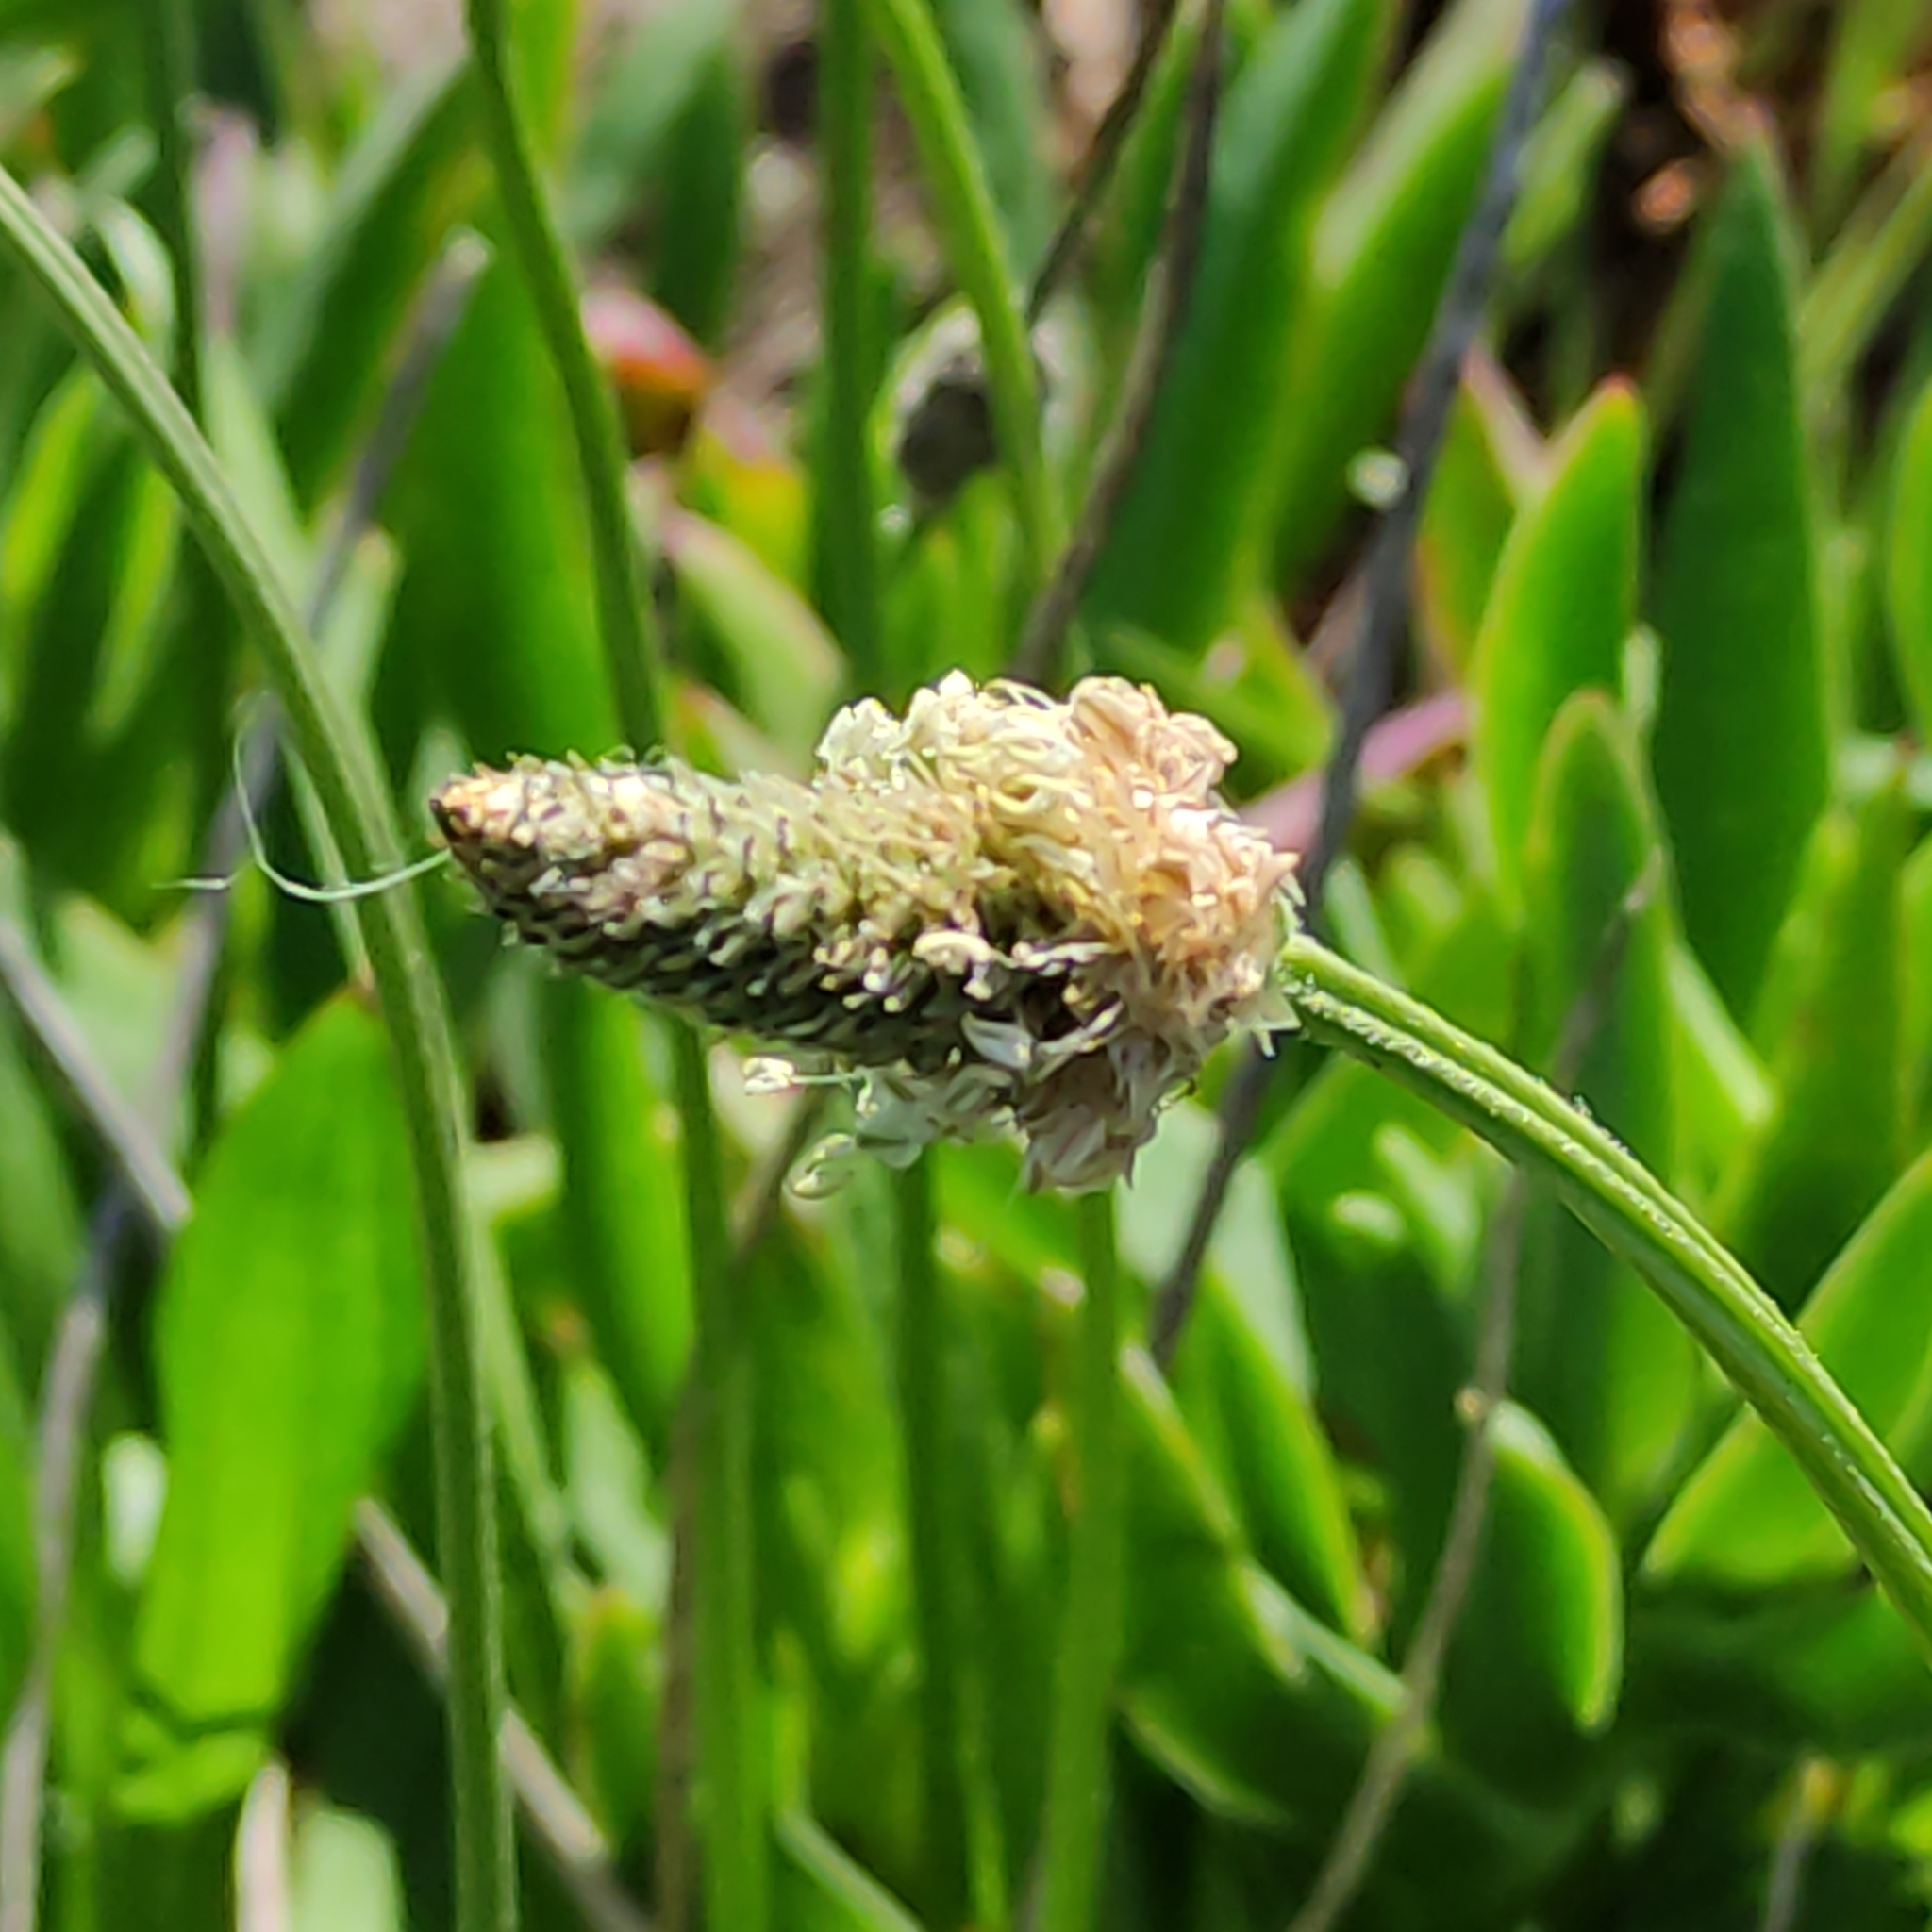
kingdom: Plantae
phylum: Tracheophyta
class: Magnoliopsida
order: Lamiales
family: Plantaginaceae
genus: Plantago
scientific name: Plantago lanceolata
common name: Ribwort plantain
